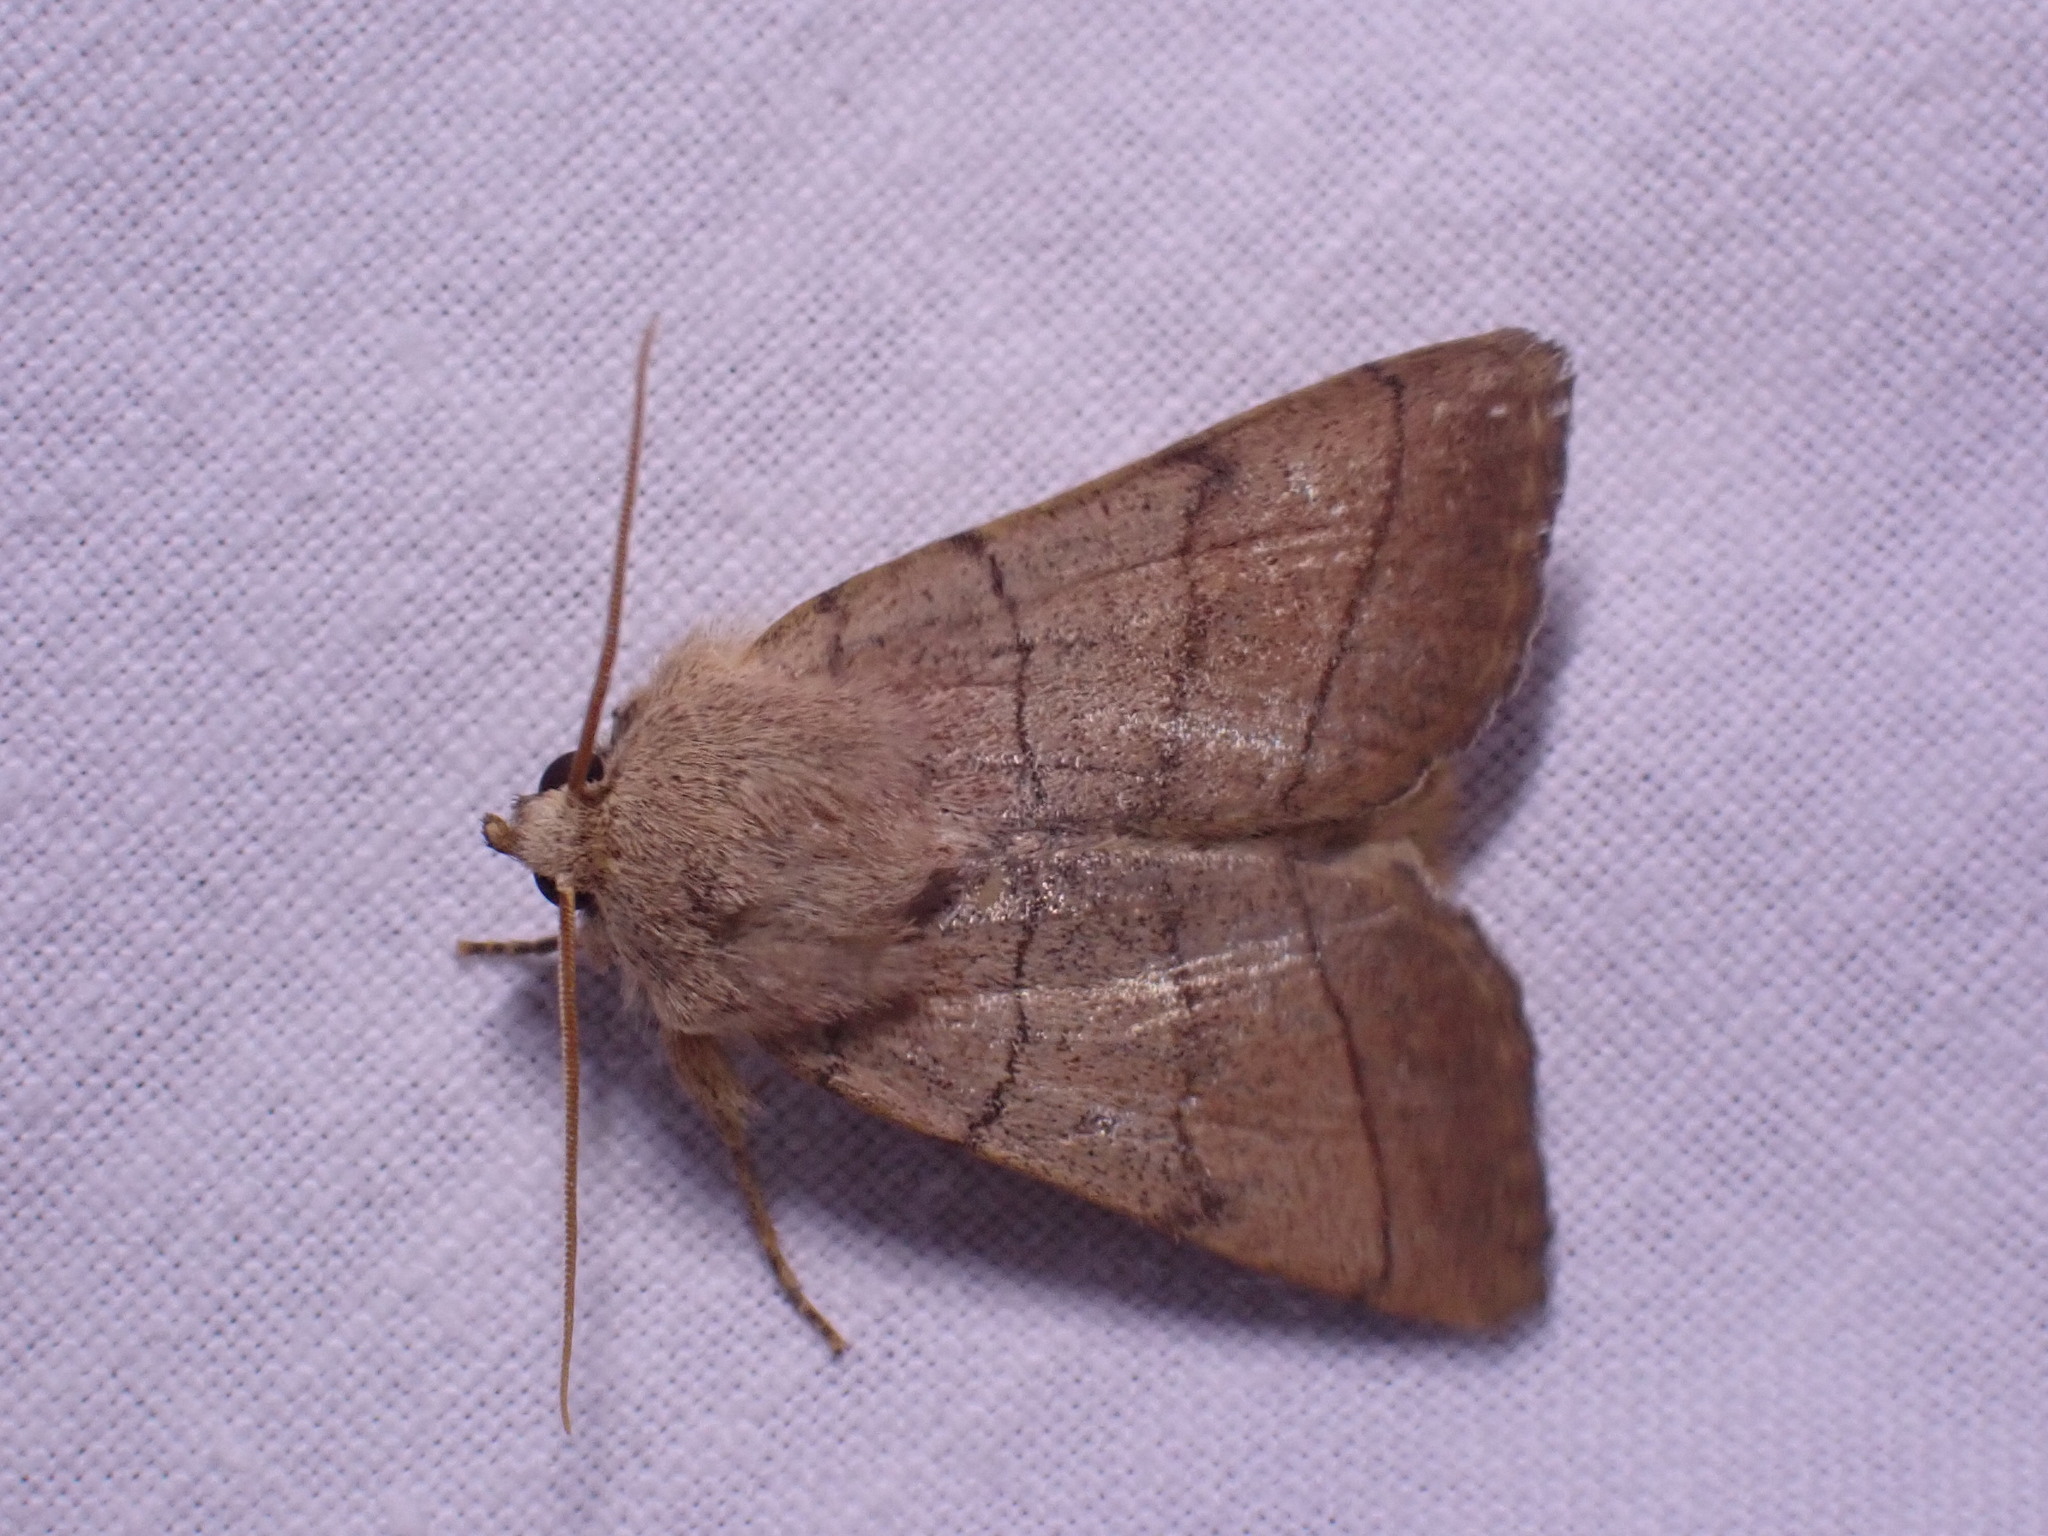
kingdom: Animalia
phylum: Arthropoda
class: Insecta
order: Lepidoptera
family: Noctuidae
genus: Charanyca
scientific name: Charanyca trigrammica
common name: Treble lines
